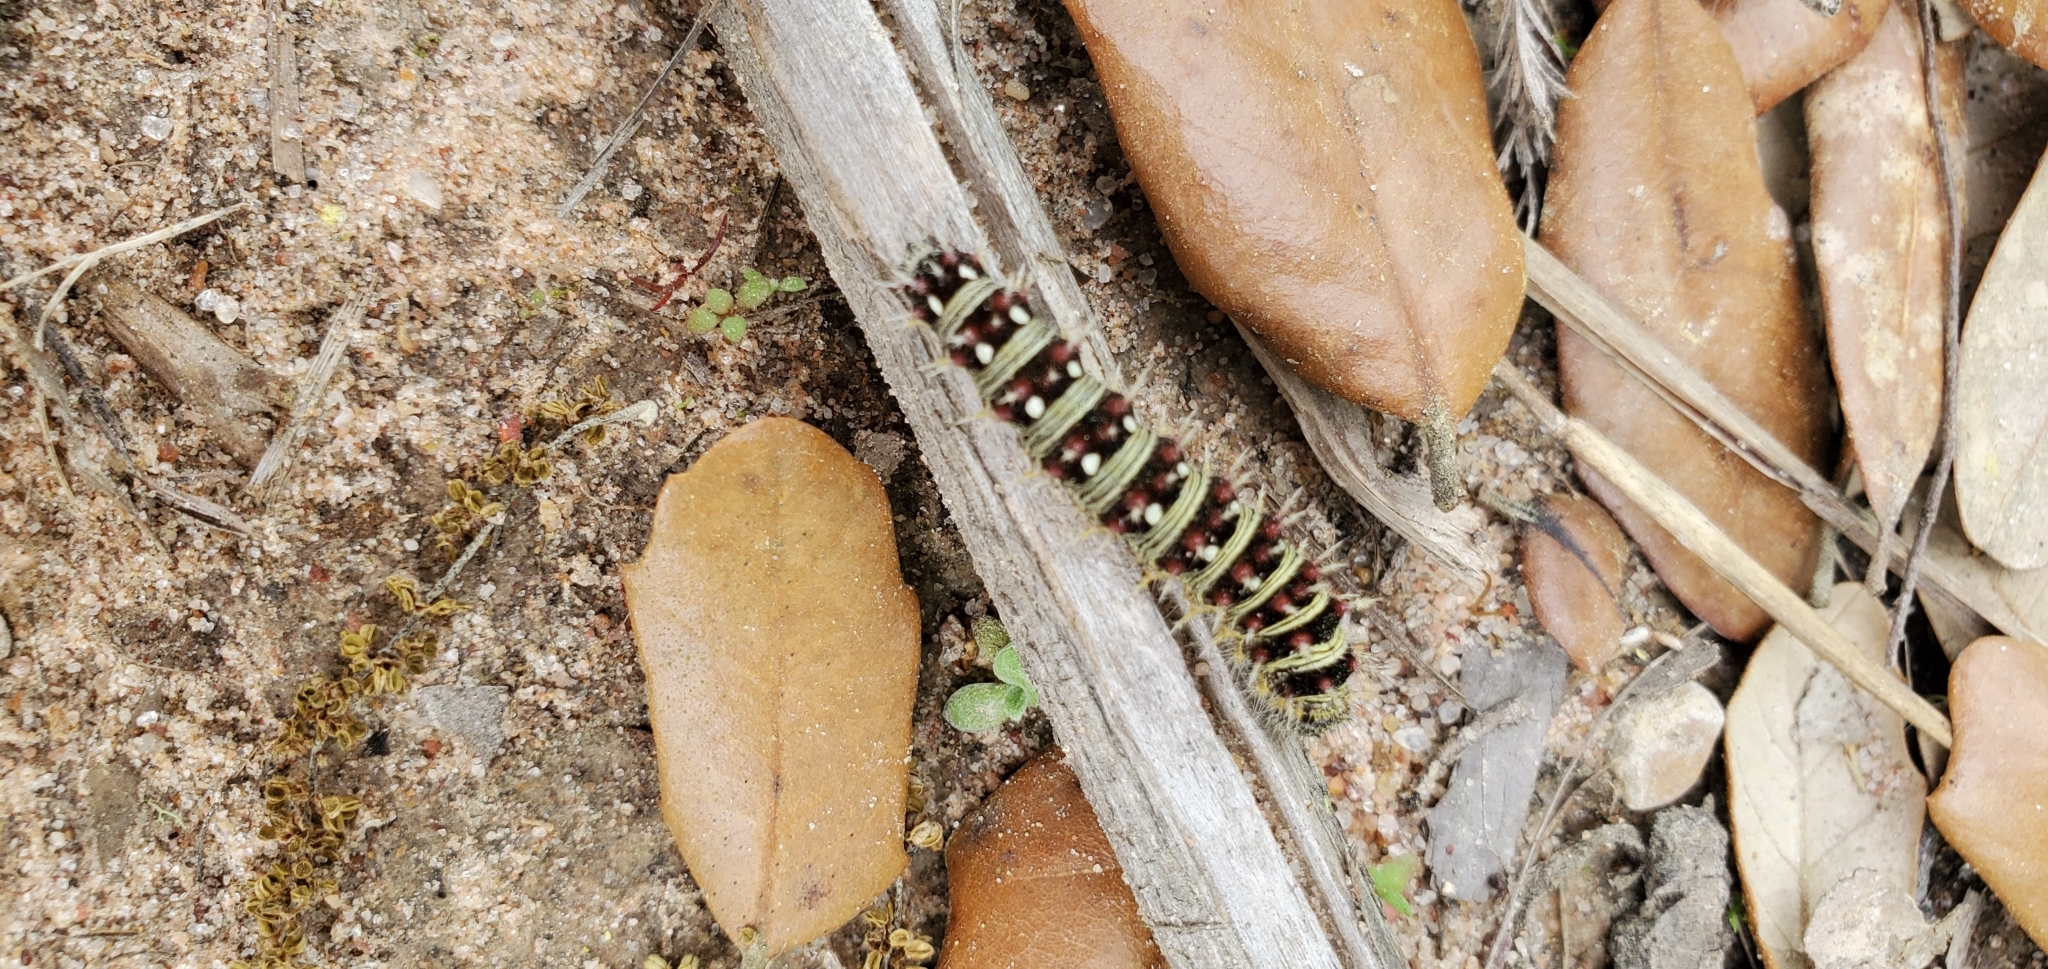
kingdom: Animalia
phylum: Arthropoda
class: Insecta
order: Lepidoptera
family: Nymphalidae
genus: Vanessa
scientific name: Vanessa virginiensis
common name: American lady
